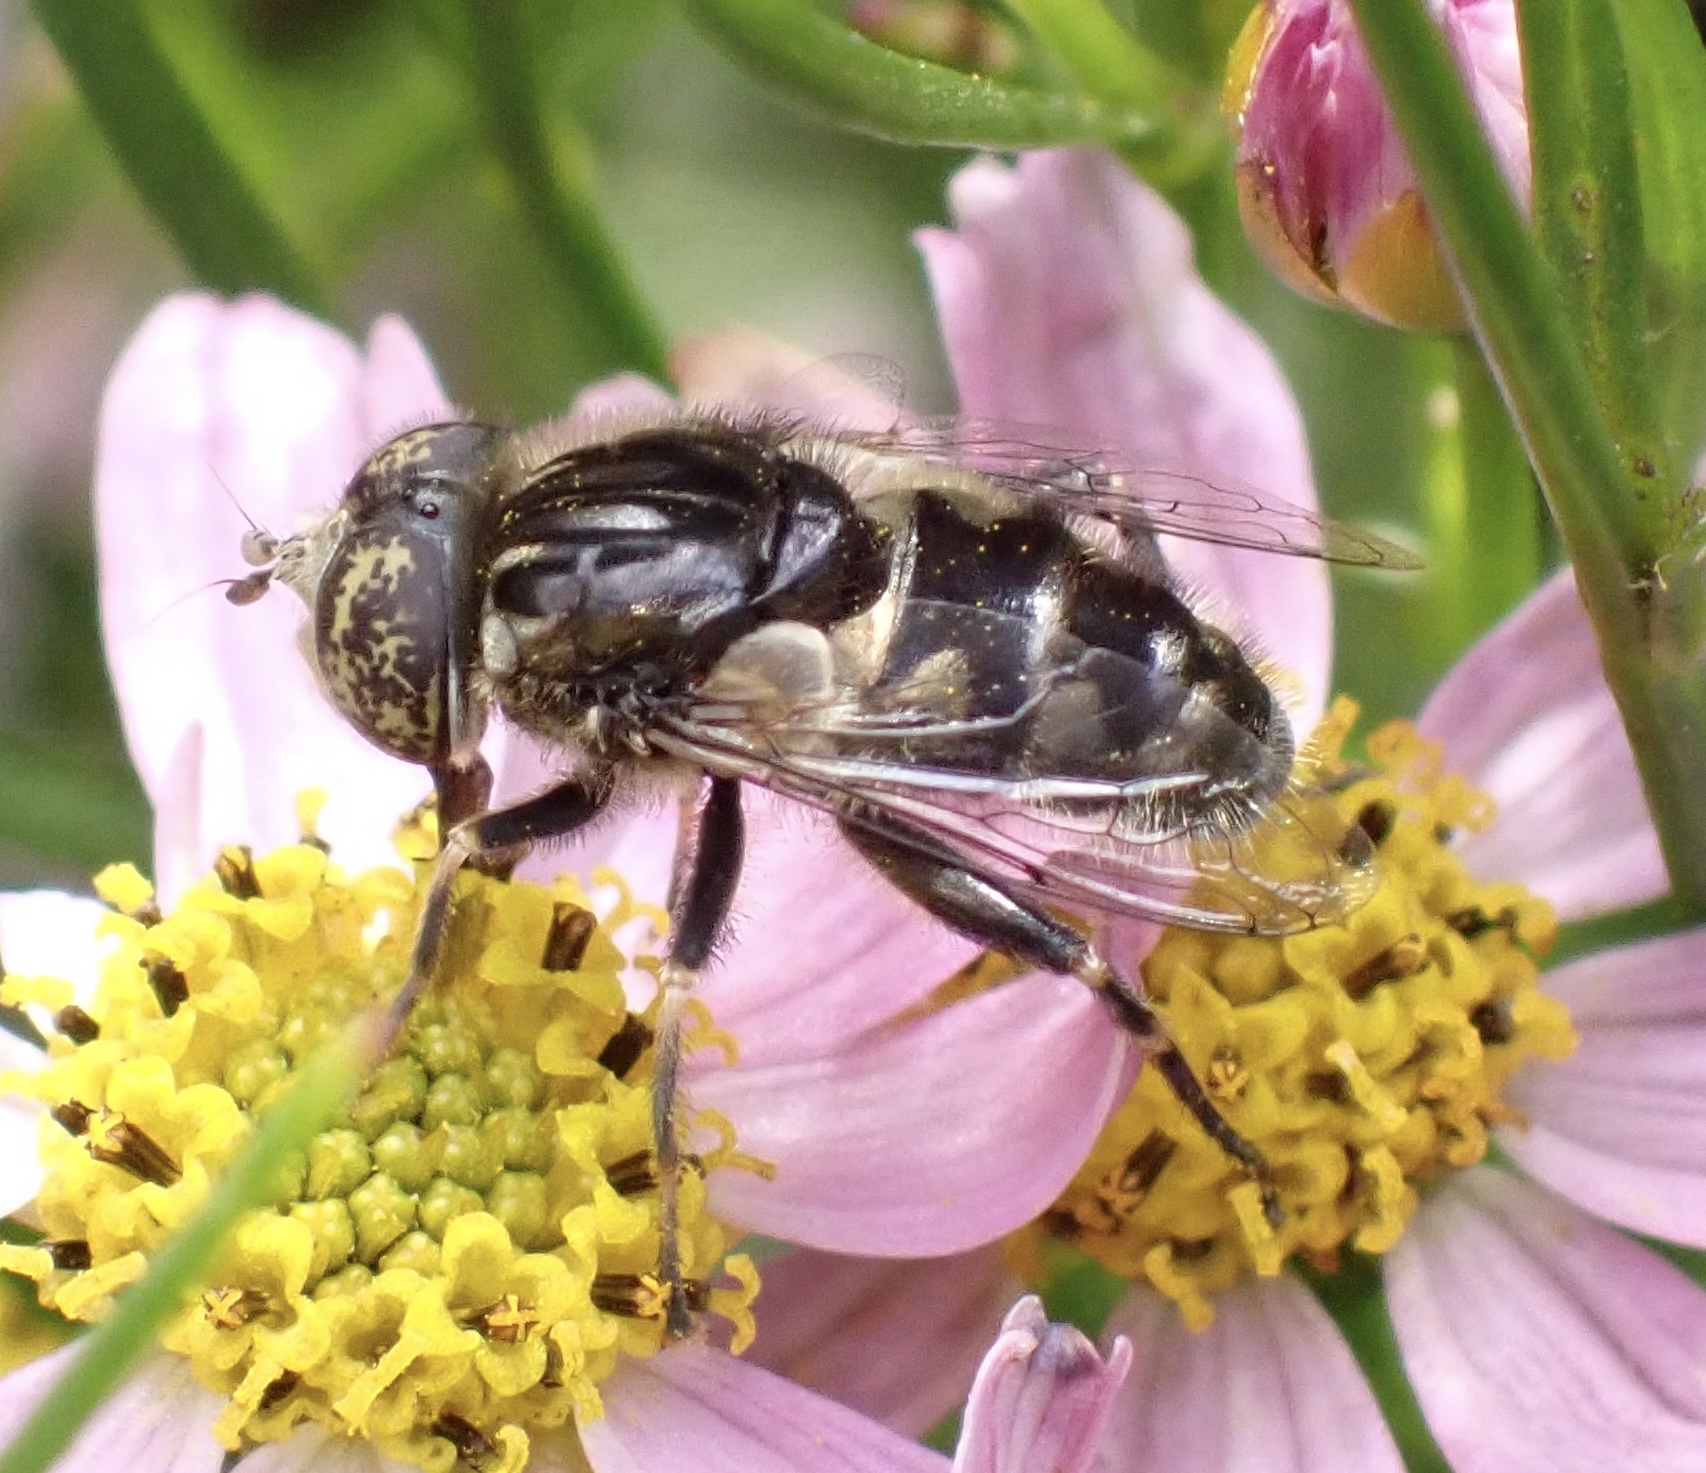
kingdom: Animalia
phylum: Arthropoda
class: Insecta
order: Diptera
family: Syrphidae
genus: Eristalinus
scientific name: Eristalinus sepulchralis
